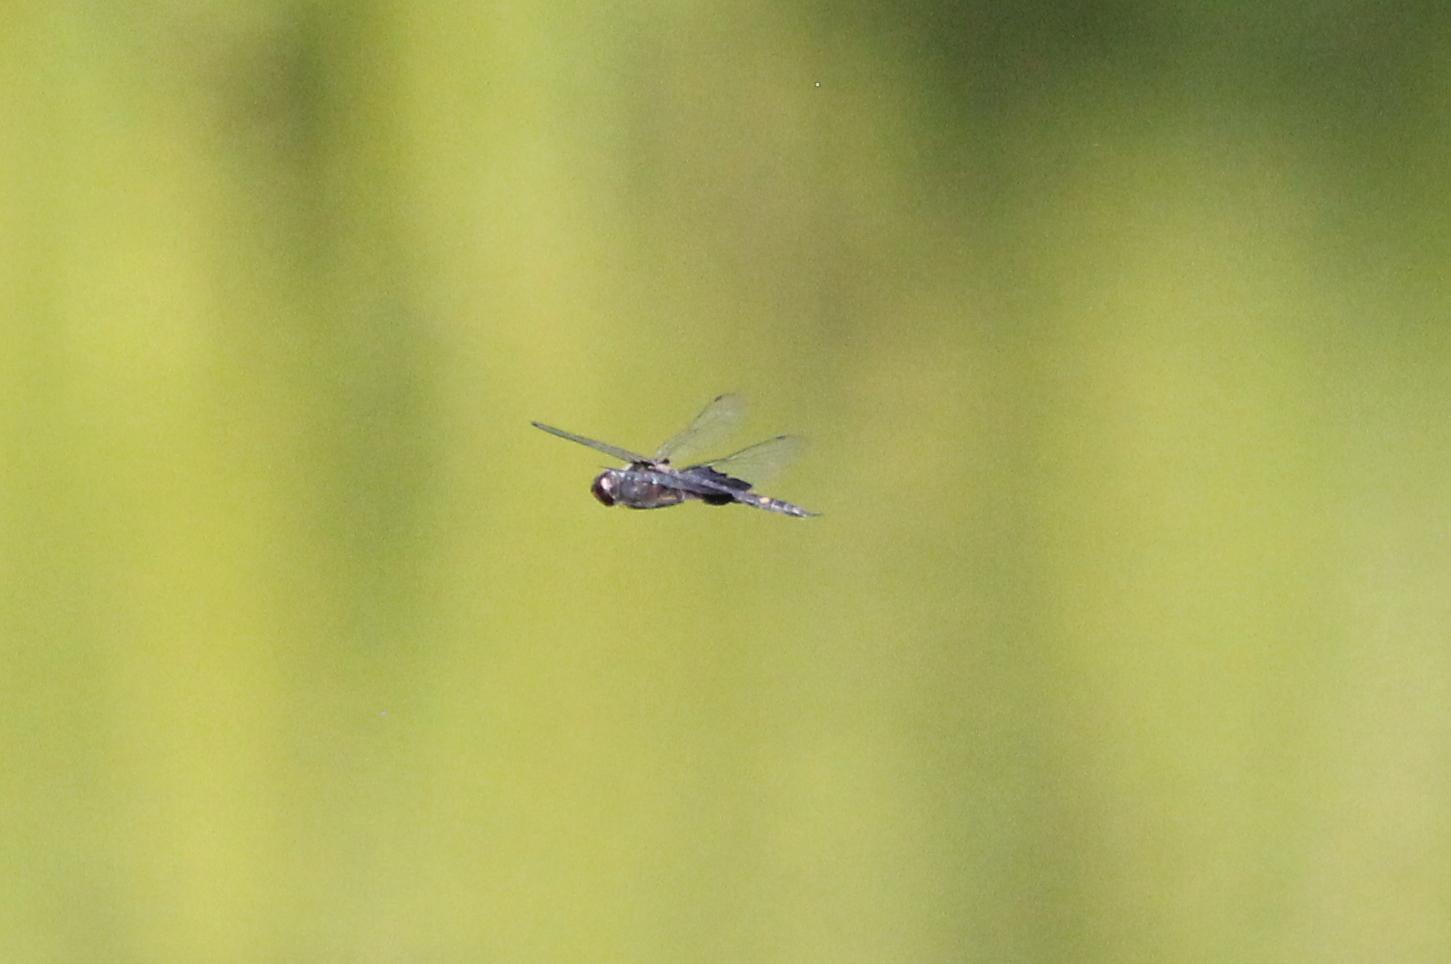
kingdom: Animalia
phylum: Arthropoda
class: Insecta
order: Odonata
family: Libellulidae
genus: Tramea
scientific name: Tramea lacerata
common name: Black saddlebags
